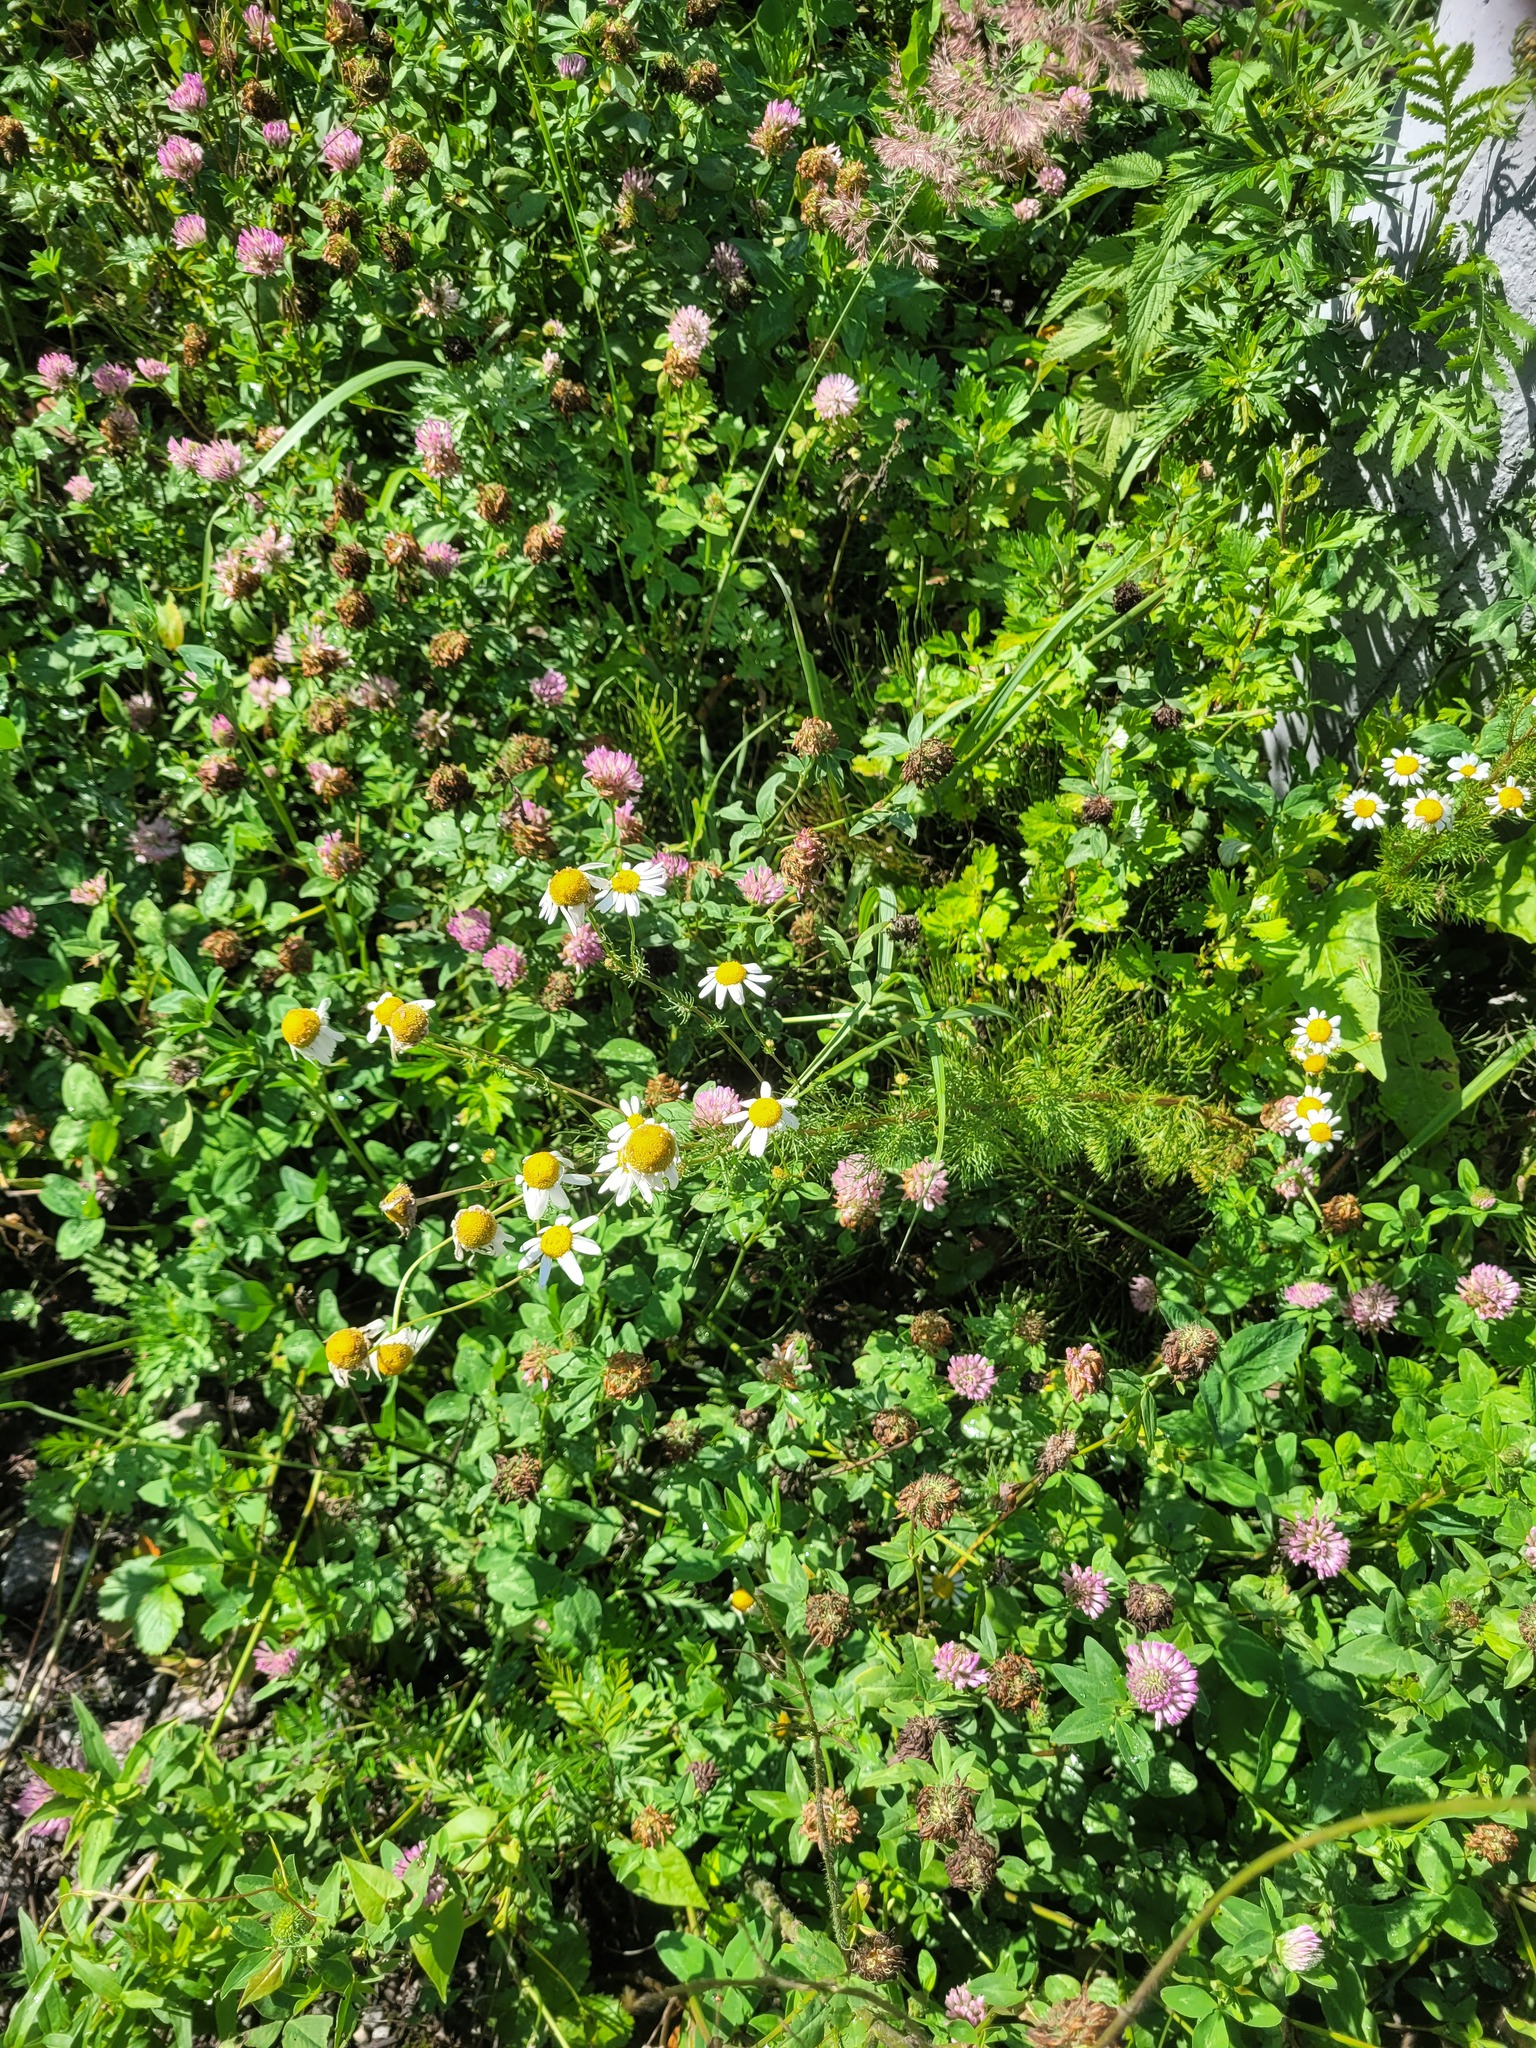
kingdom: Plantae
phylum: Tracheophyta
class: Magnoliopsida
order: Asterales
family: Asteraceae
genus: Tripleurospermum
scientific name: Tripleurospermum inodorum
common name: Scentless mayweed
